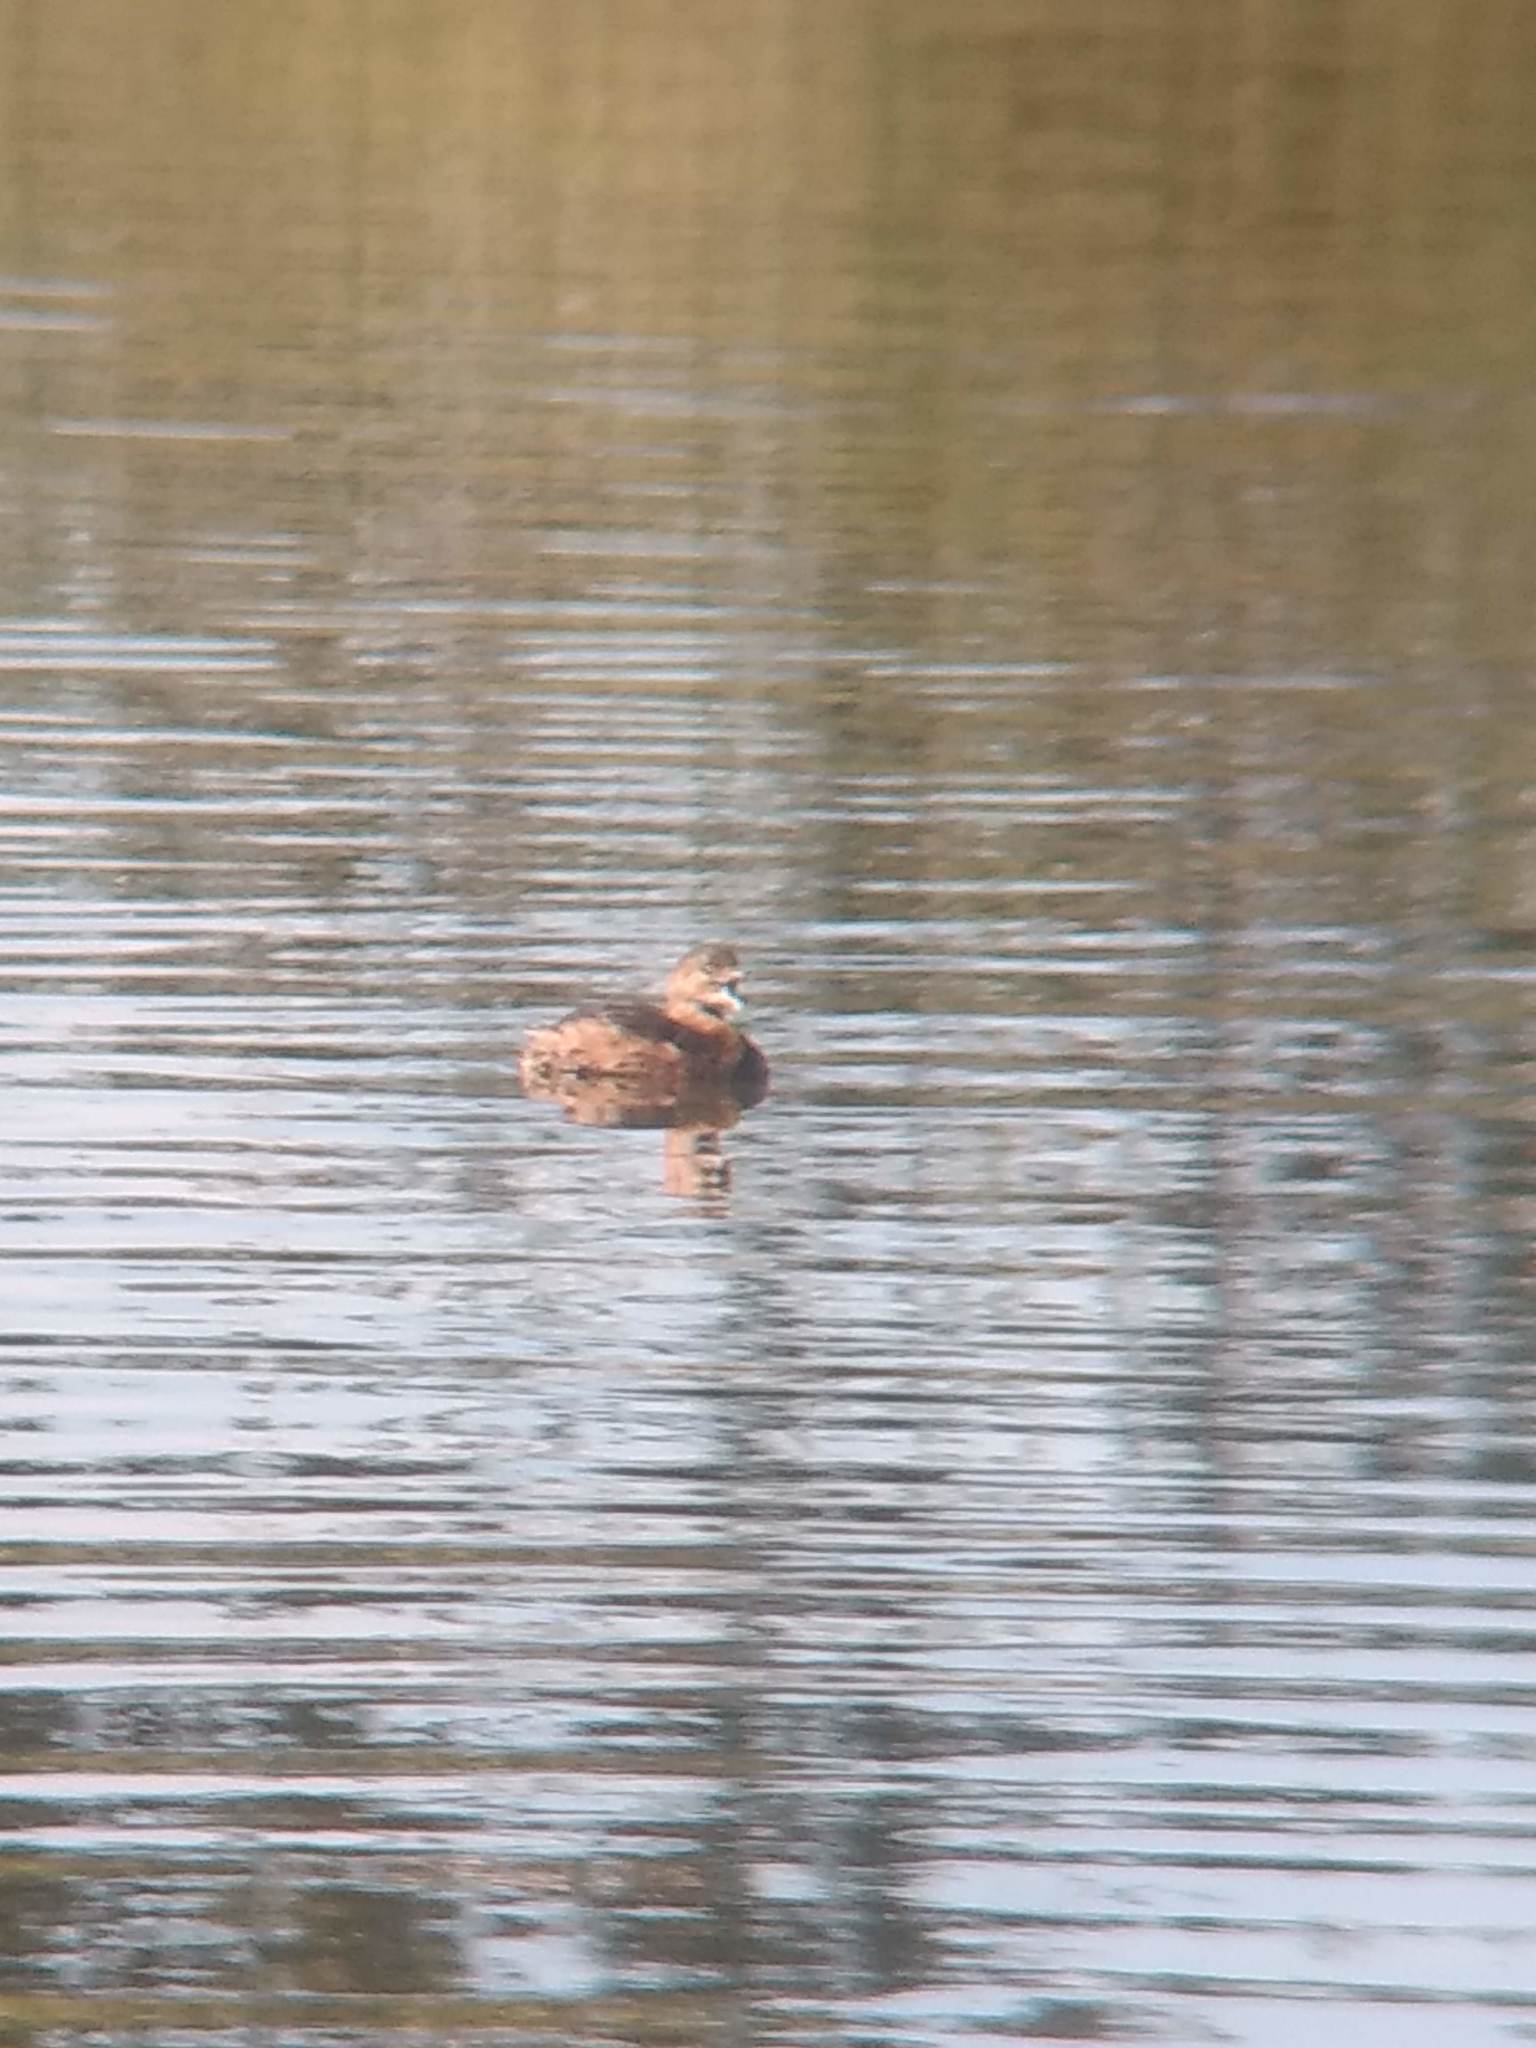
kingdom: Animalia
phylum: Chordata
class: Aves
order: Podicipediformes
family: Podicipedidae
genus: Podilymbus
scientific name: Podilymbus podiceps
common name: Pied-billed grebe
